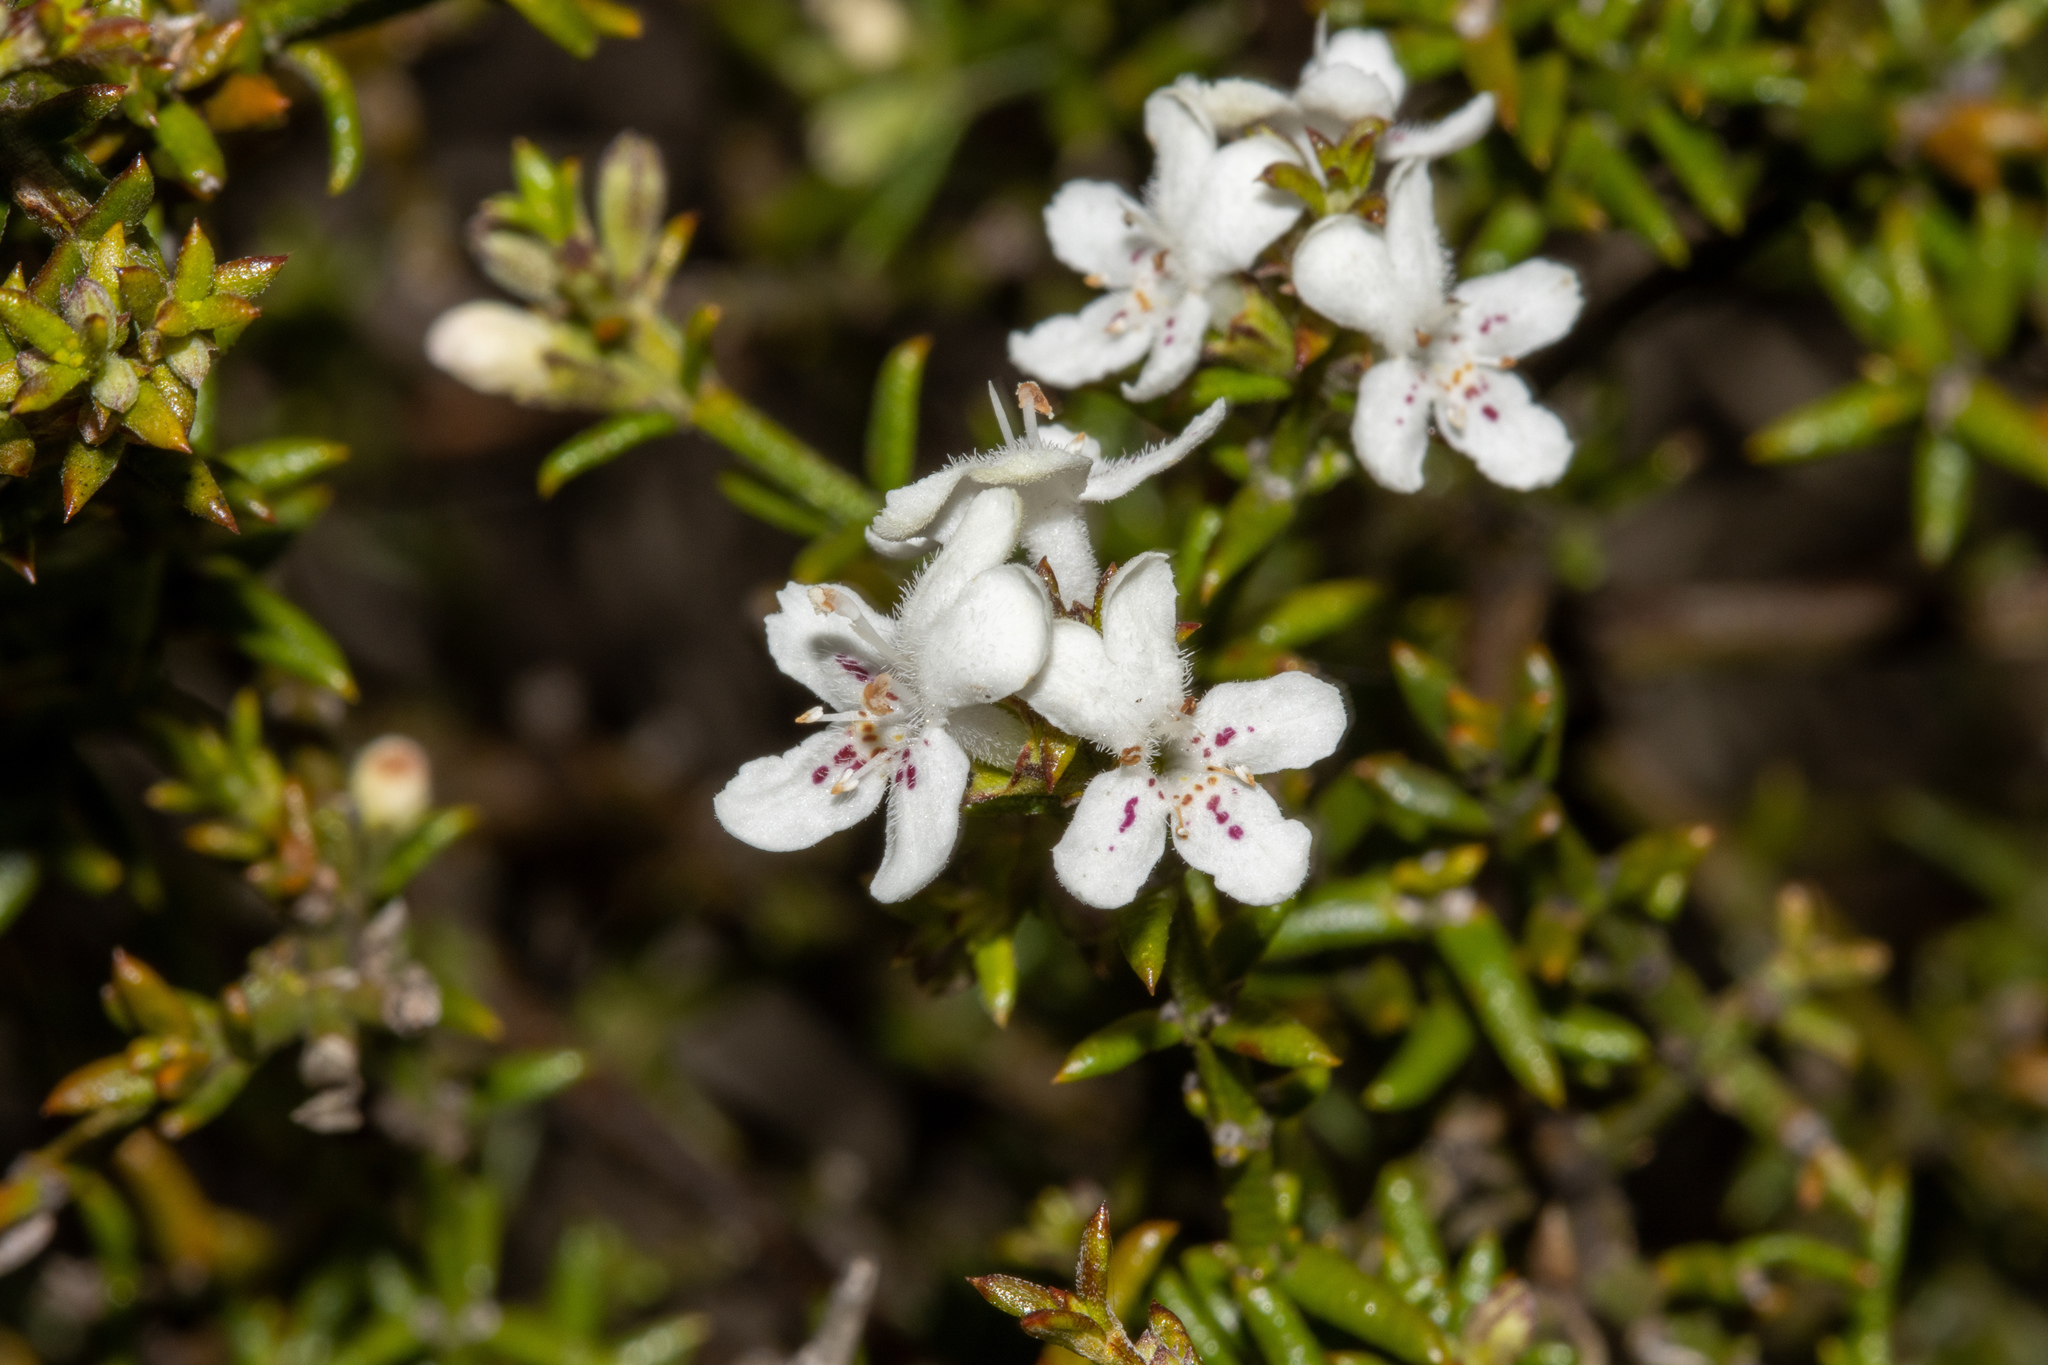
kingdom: Plantae
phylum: Tracheophyta
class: Magnoliopsida
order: Lamiales
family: Lamiaceae
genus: Westringia
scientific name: Westringia rigida
